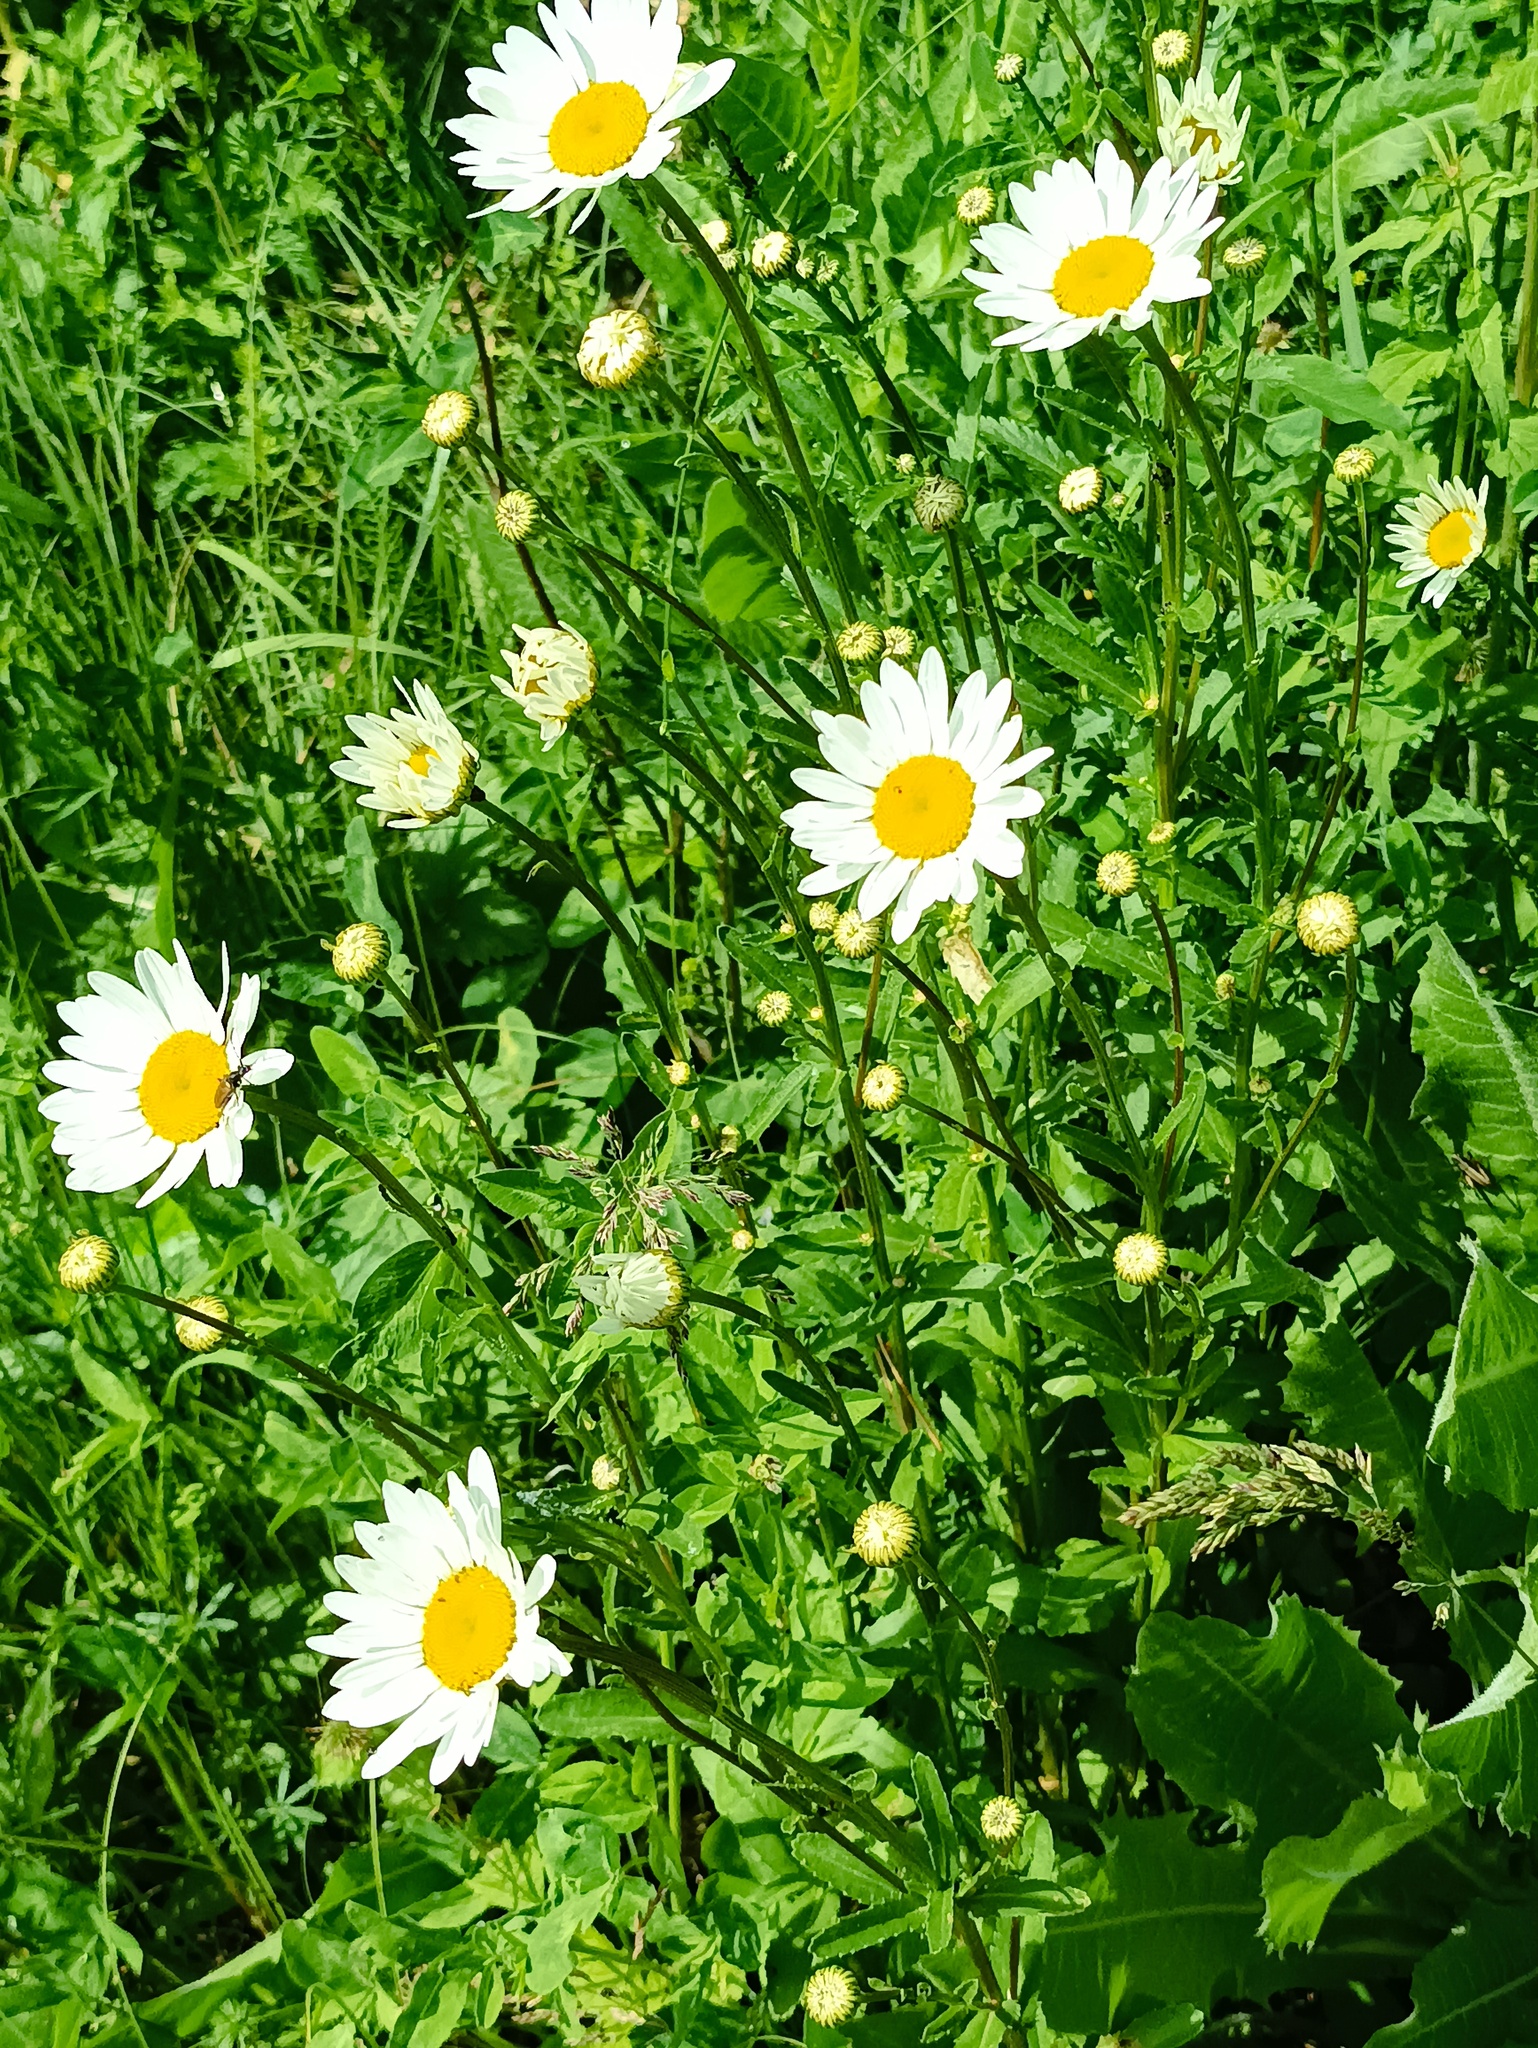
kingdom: Plantae
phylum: Tracheophyta
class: Magnoliopsida
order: Asterales
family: Asteraceae
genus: Leucanthemum
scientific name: Leucanthemum vulgare
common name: Oxeye daisy
